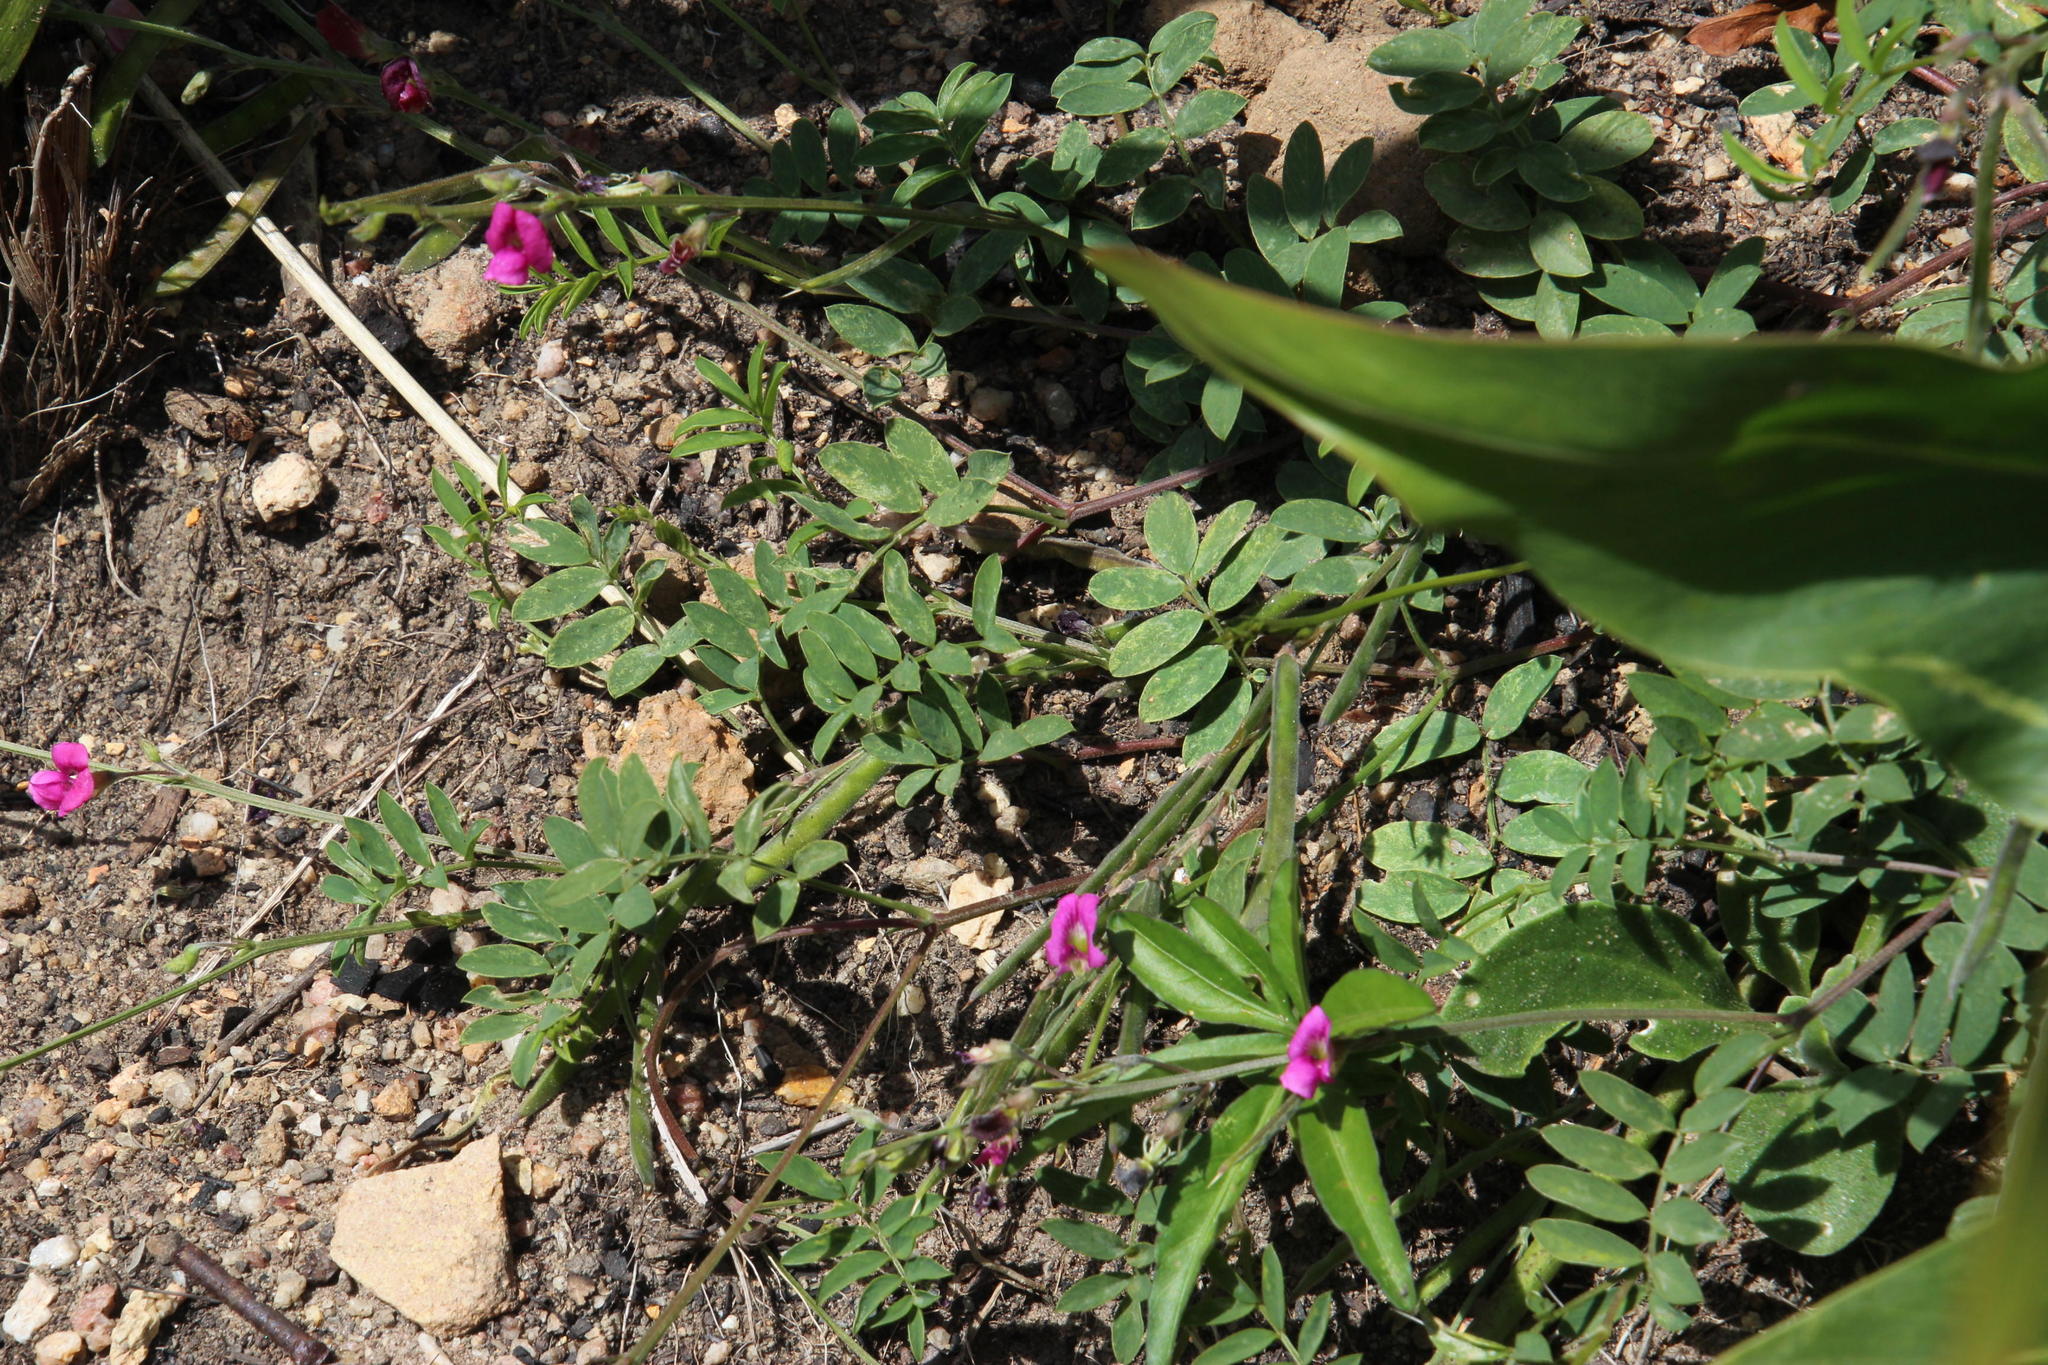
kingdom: Plantae
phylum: Tracheophyta
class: Magnoliopsida
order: Fabales
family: Fabaceae
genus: Tephrosia
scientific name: Tephrosia capensis
